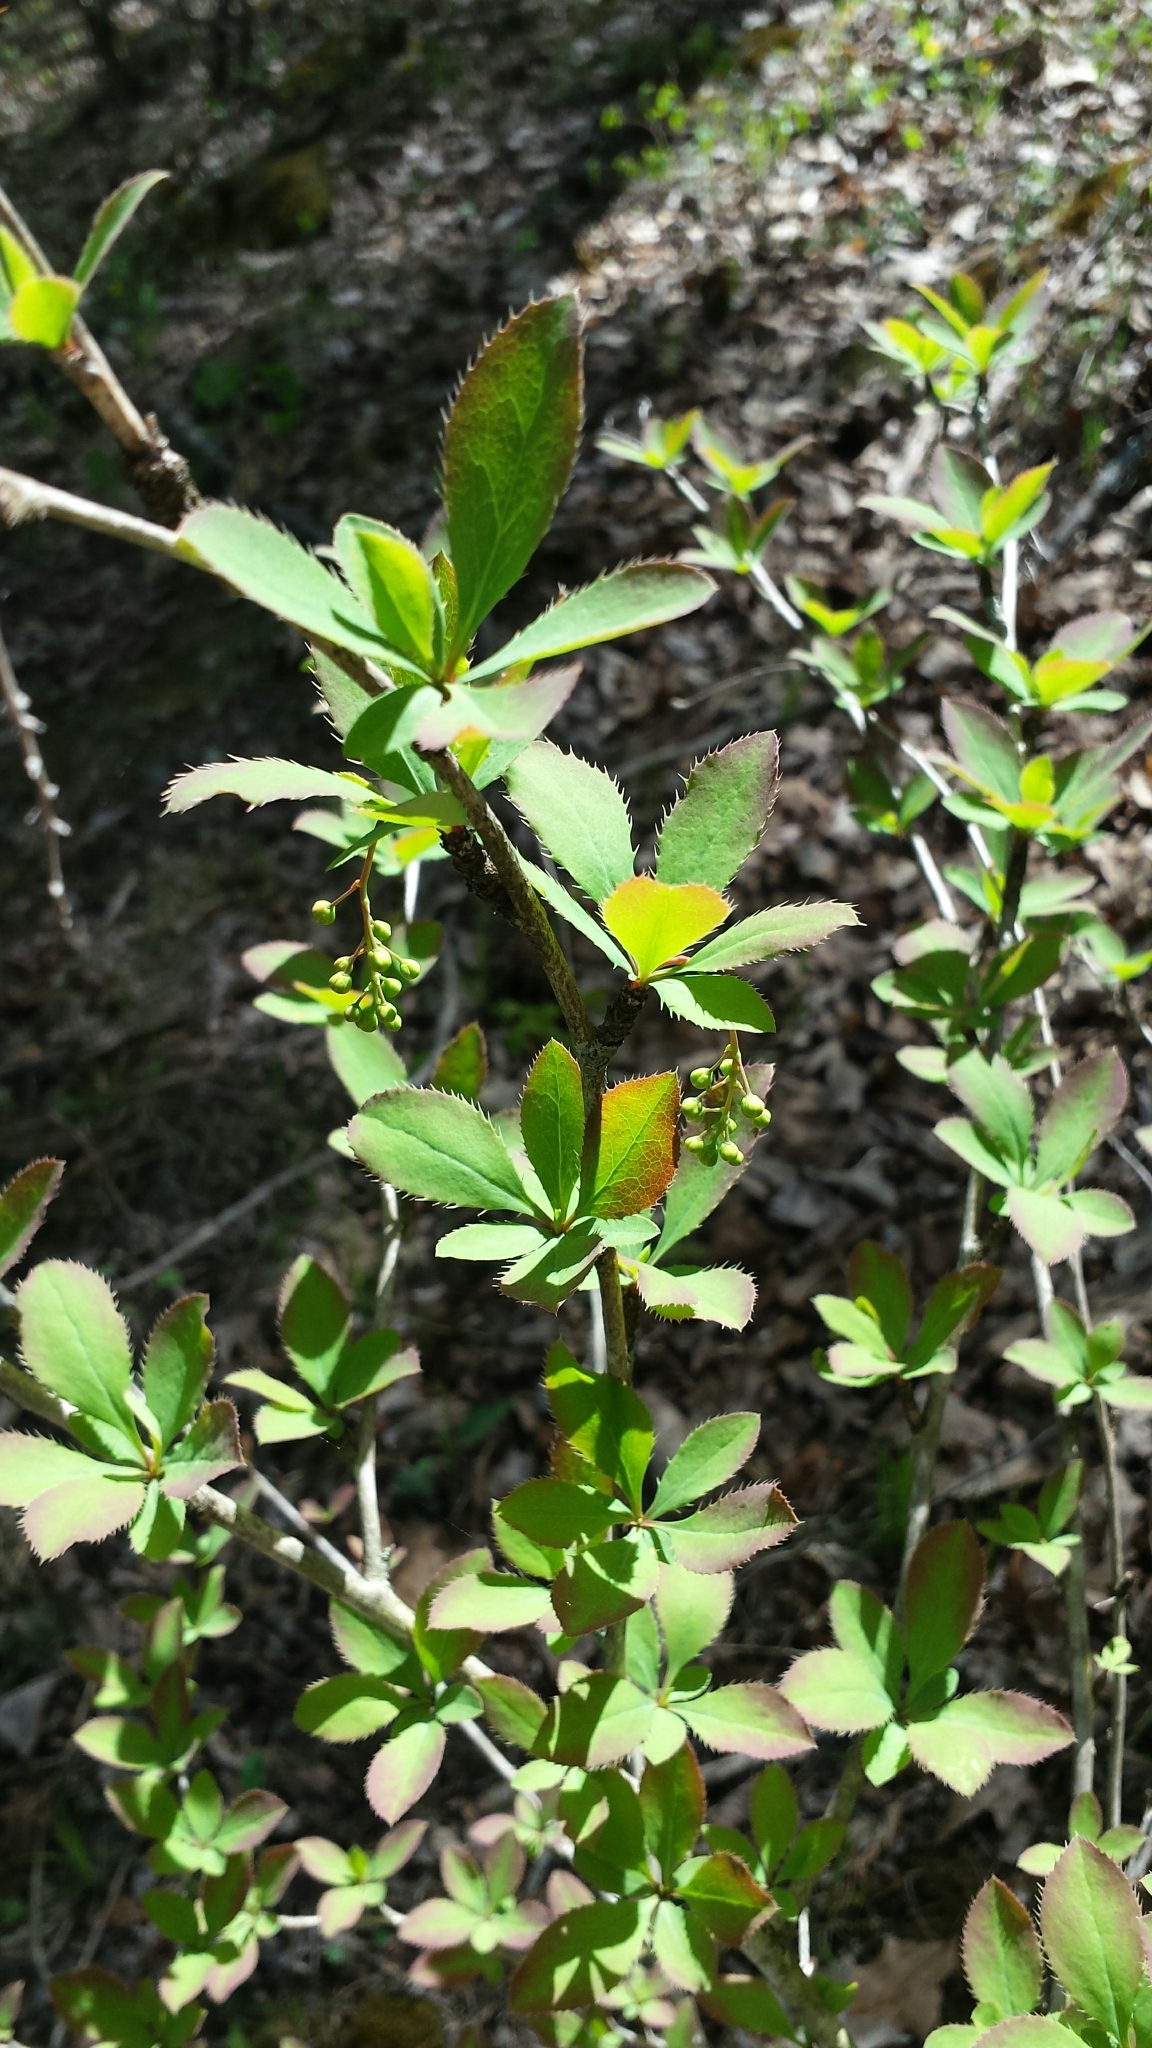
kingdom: Plantae
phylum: Tracheophyta
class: Magnoliopsida
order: Ranunculales
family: Berberidaceae
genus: Berberis
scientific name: Berberis vulgaris
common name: Barberry
